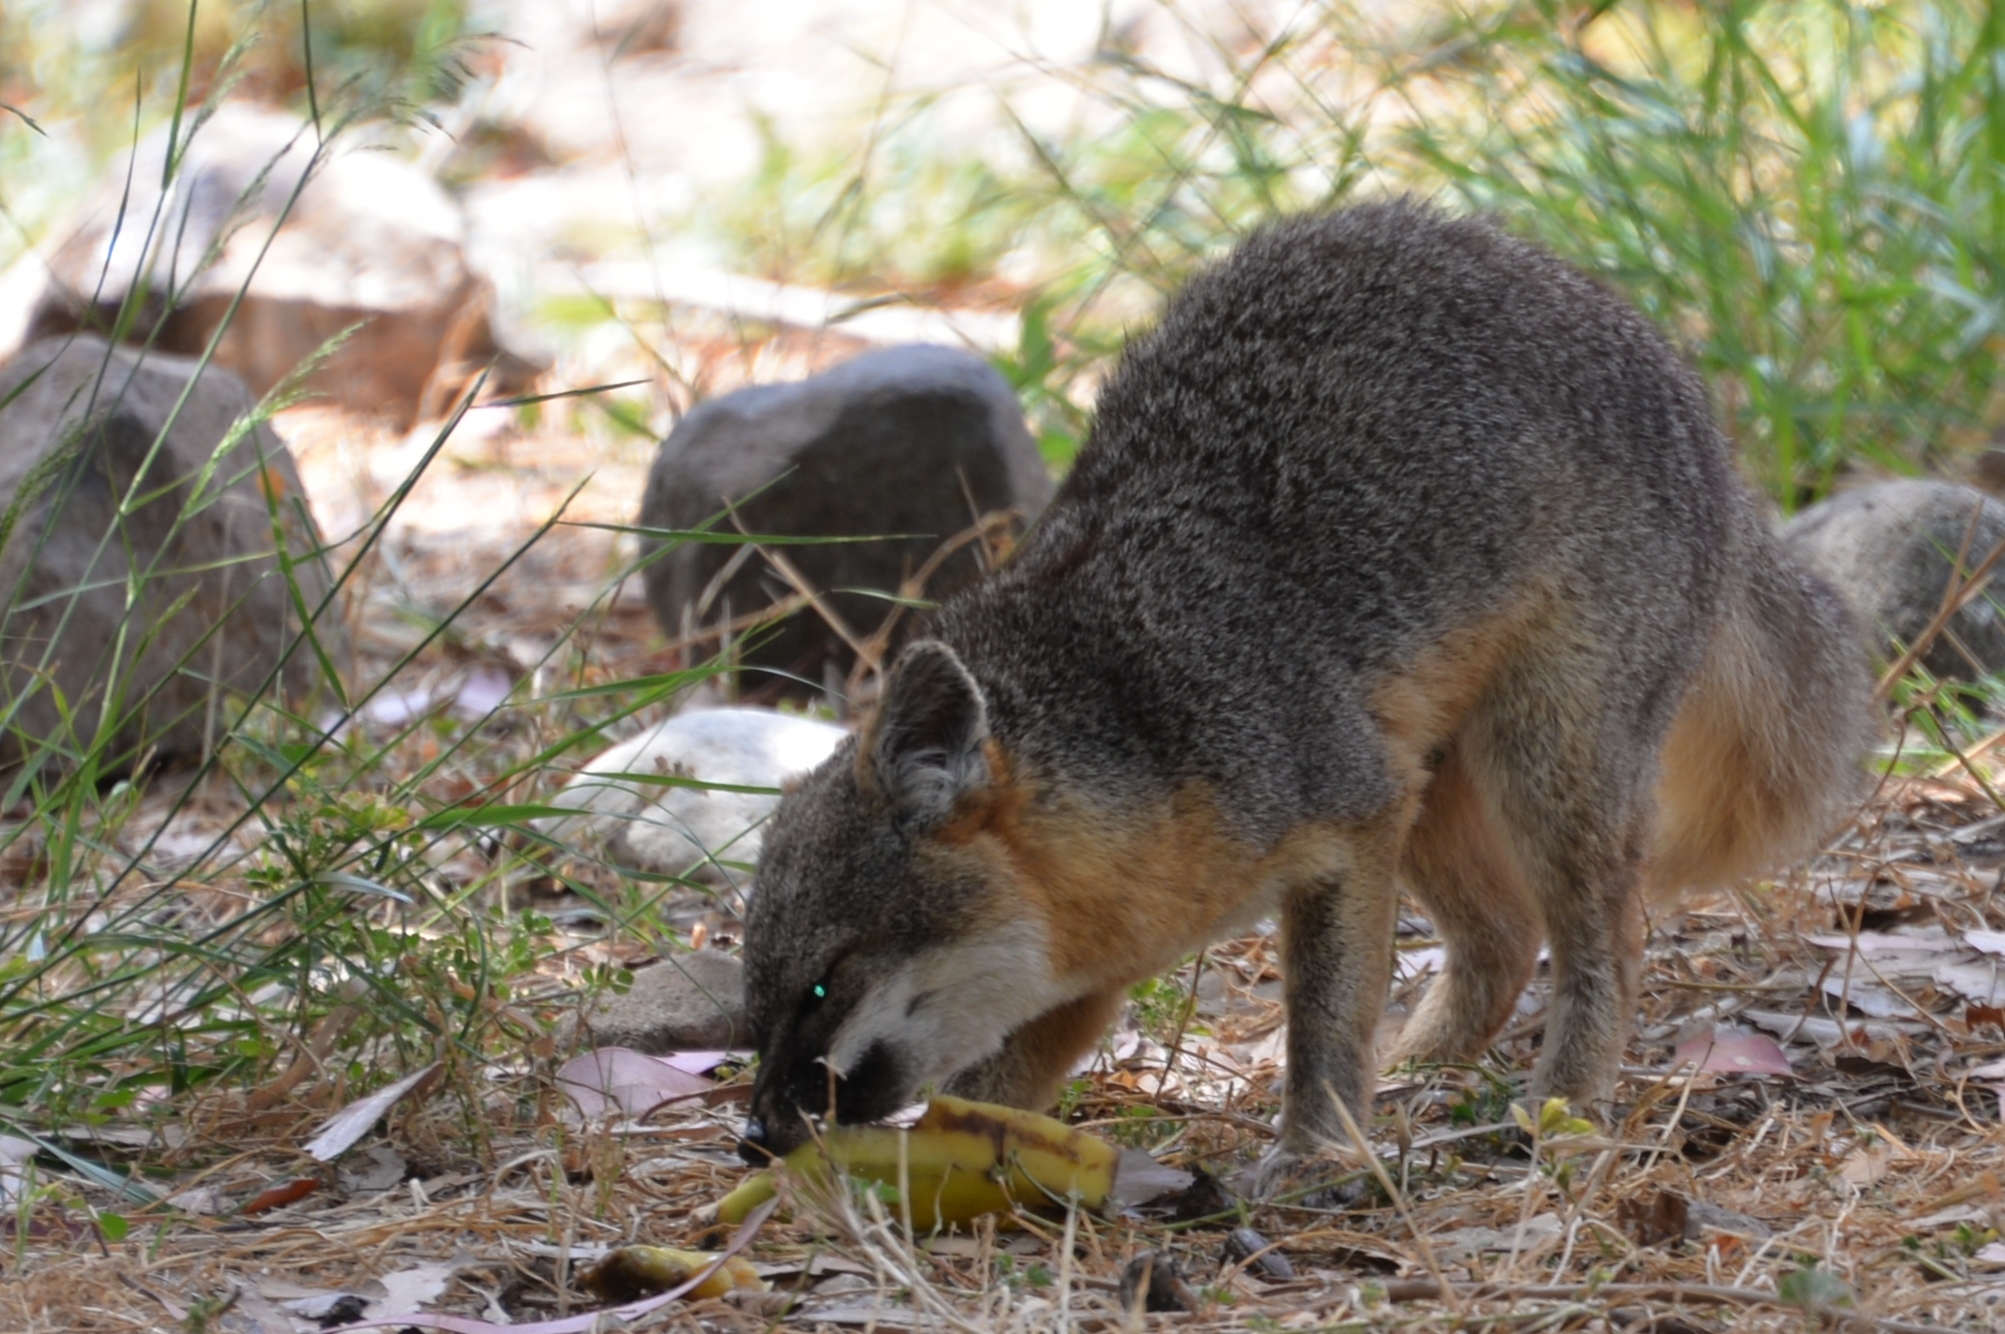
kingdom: Animalia
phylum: Chordata
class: Mammalia
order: Carnivora
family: Canidae
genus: Urocyon
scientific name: Urocyon littoralis
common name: Island gray fox
